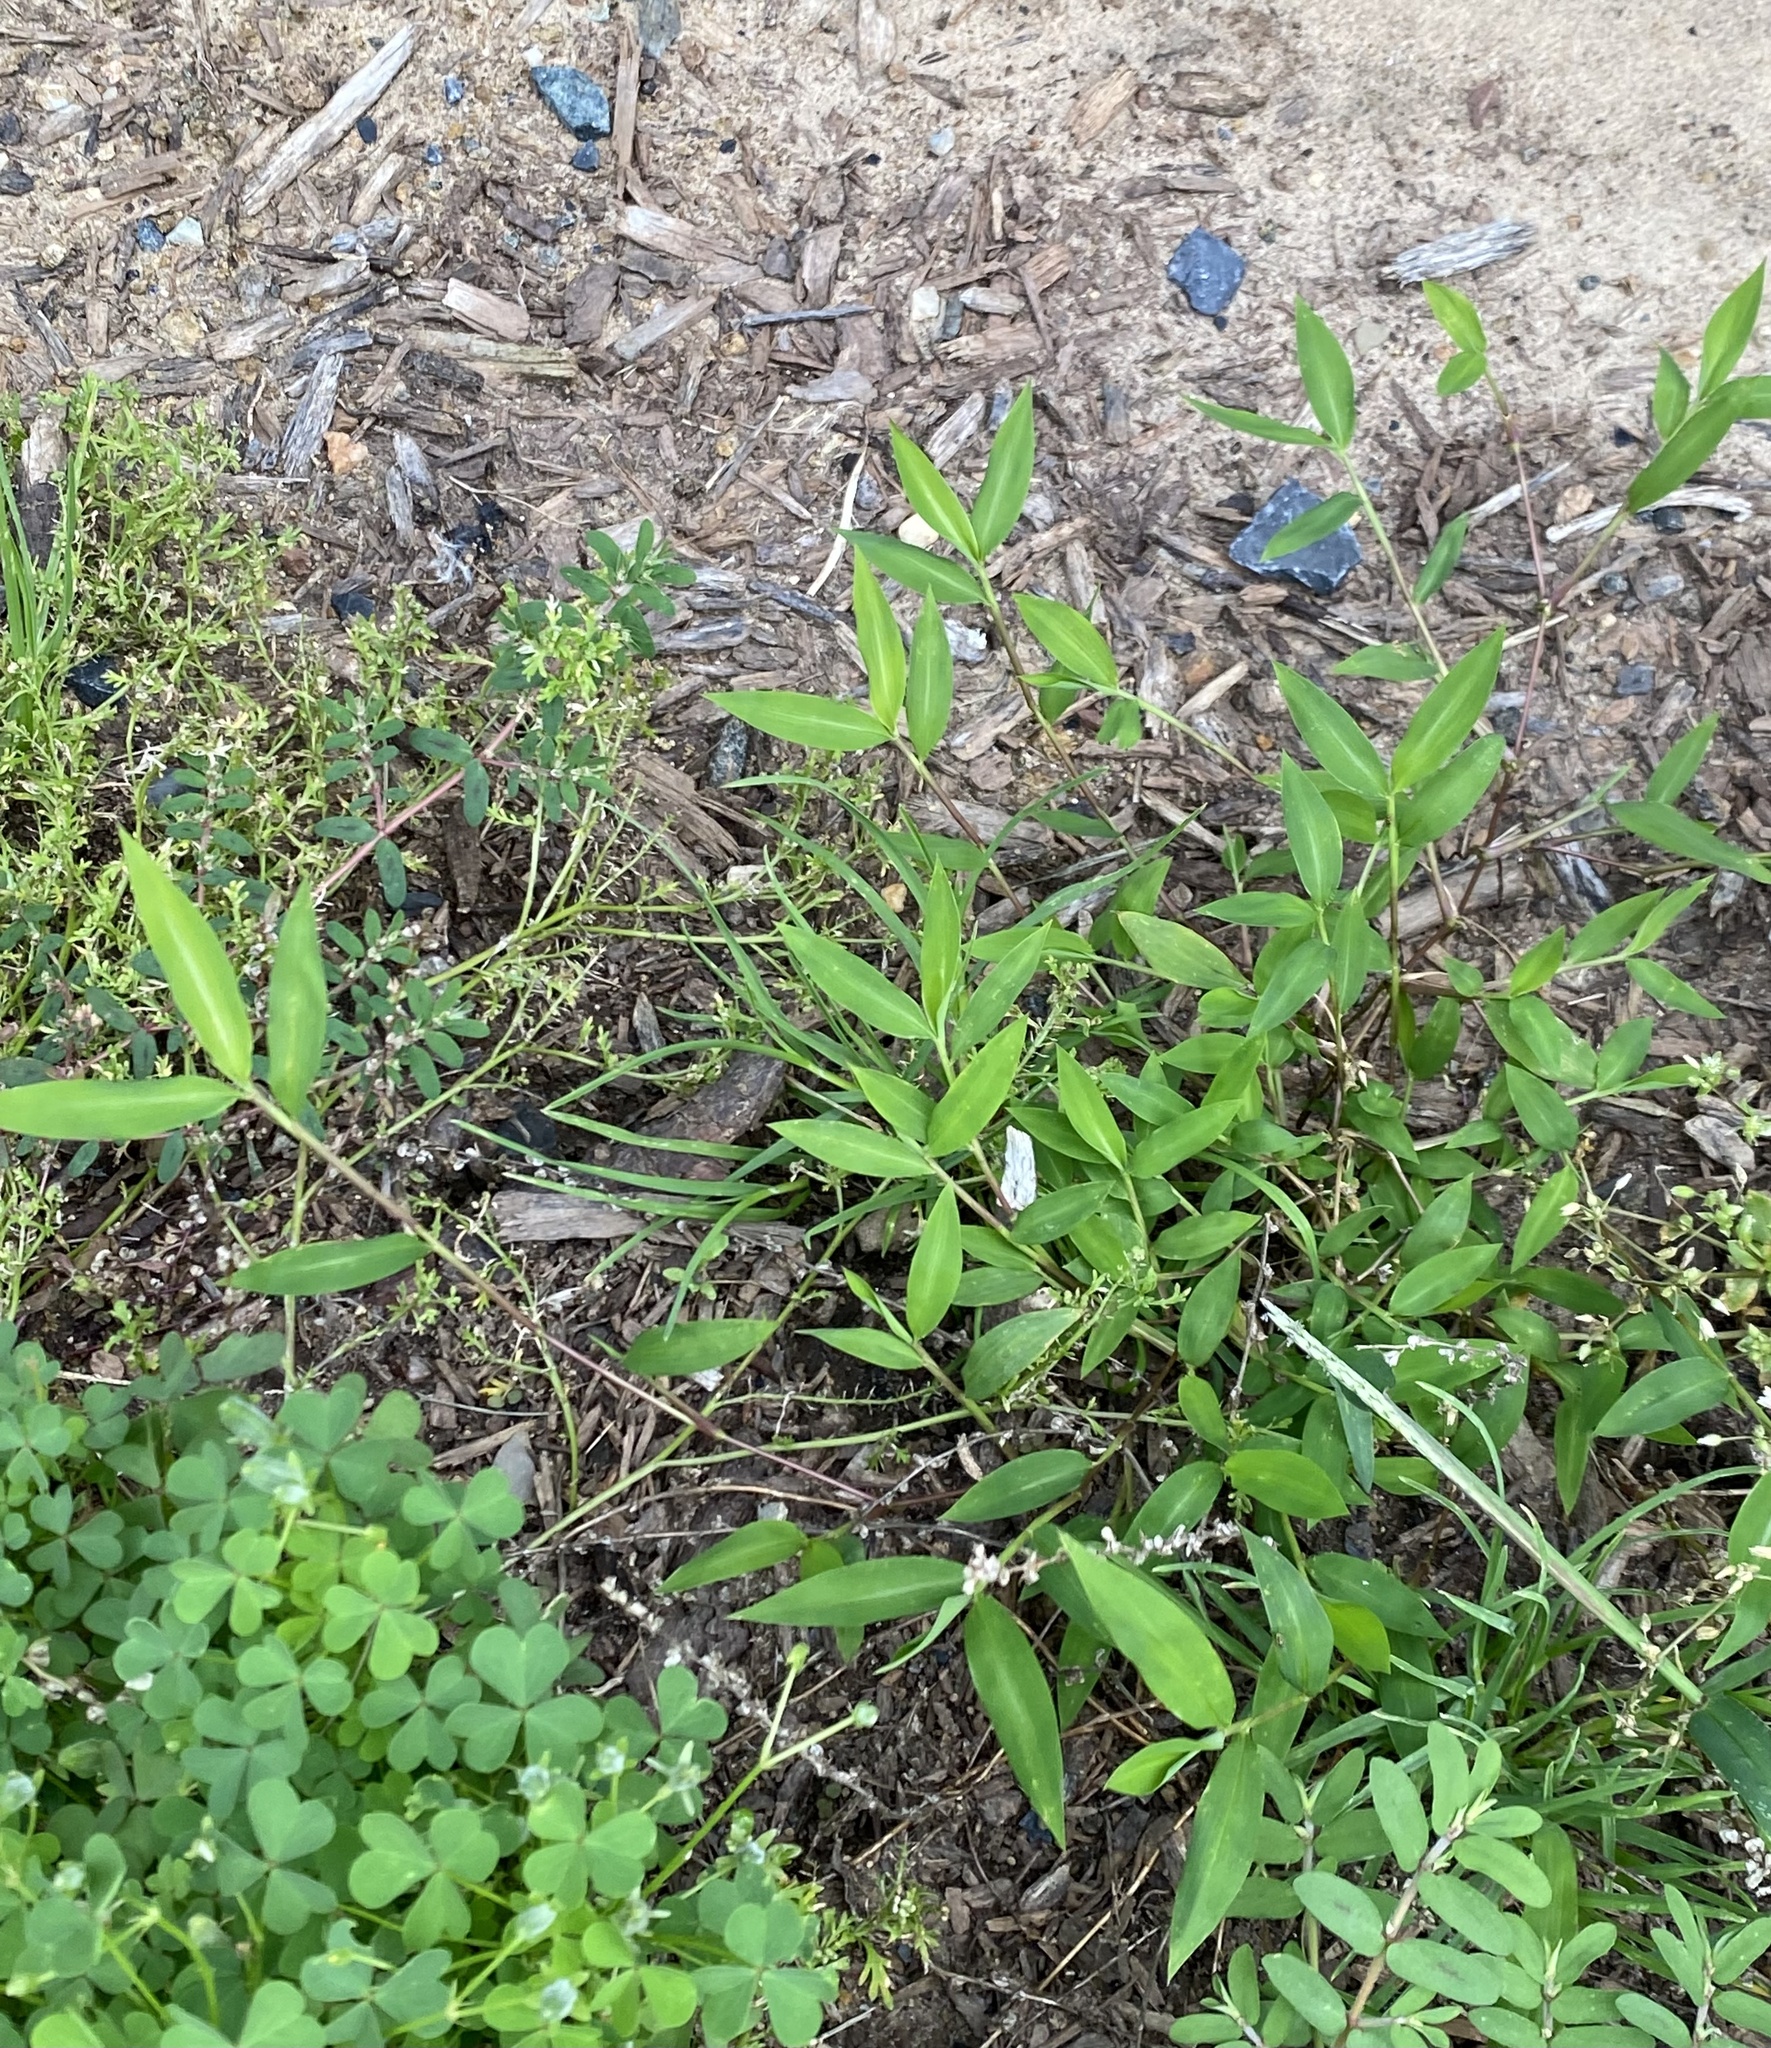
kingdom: Plantae
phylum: Tracheophyta
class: Liliopsida
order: Poales
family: Poaceae
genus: Microstegium
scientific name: Microstegium vimineum
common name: Japanese stiltgrass
